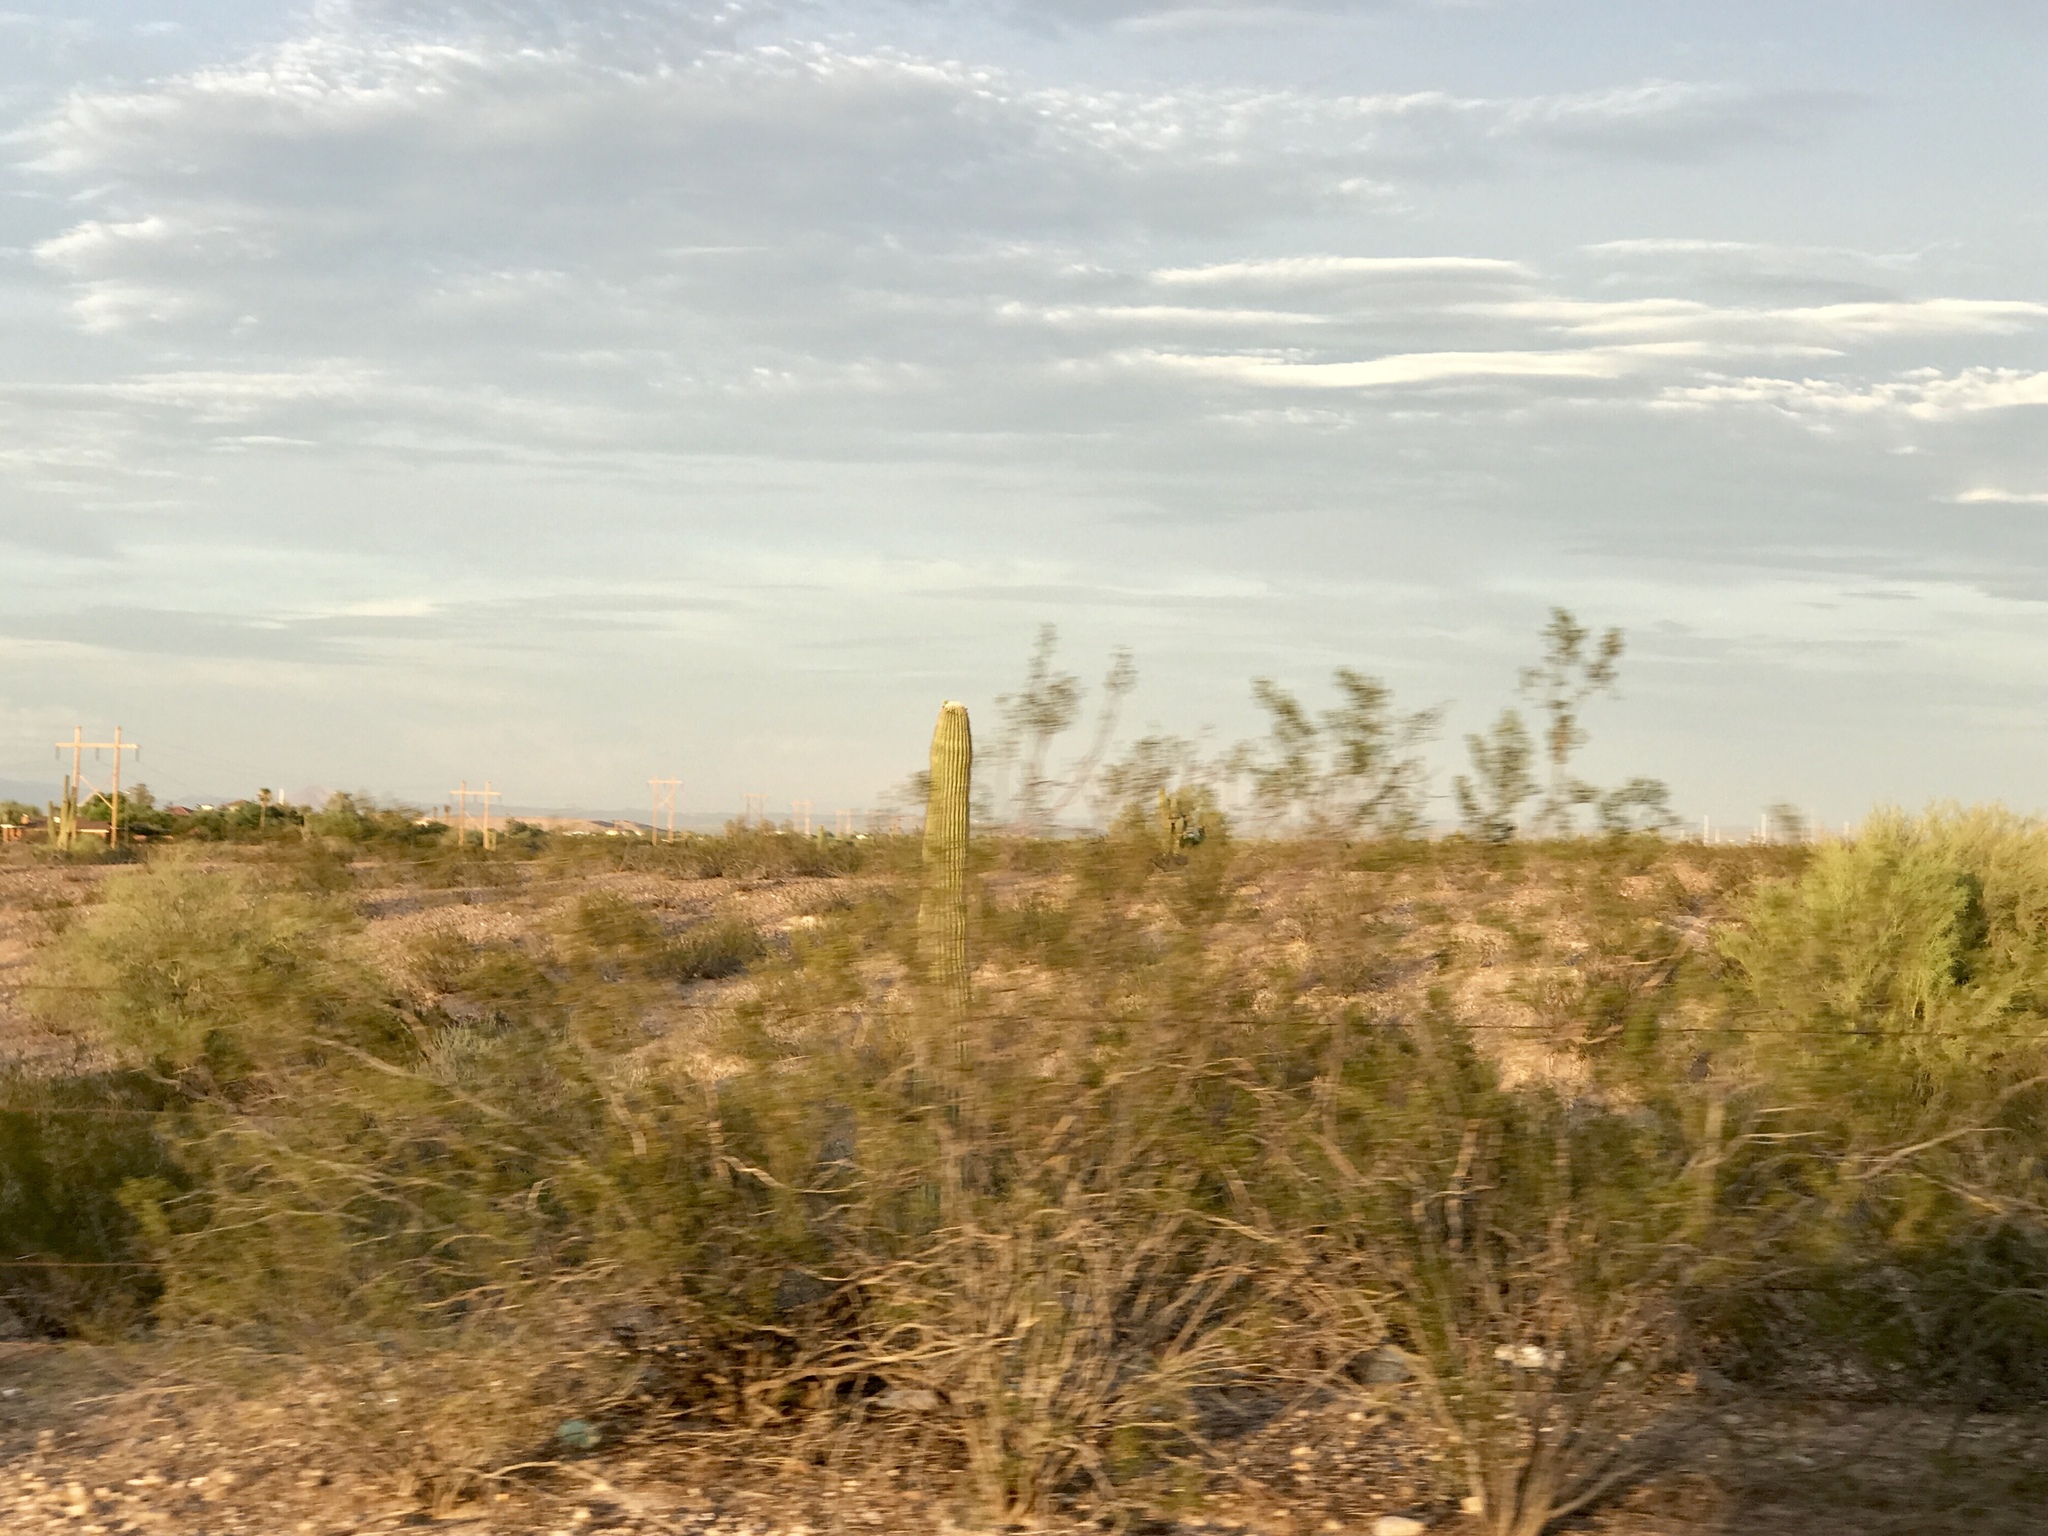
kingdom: Plantae
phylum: Tracheophyta
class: Magnoliopsida
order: Zygophyllales
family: Zygophyllaceae
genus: Larrea
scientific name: Larrea tridentata
